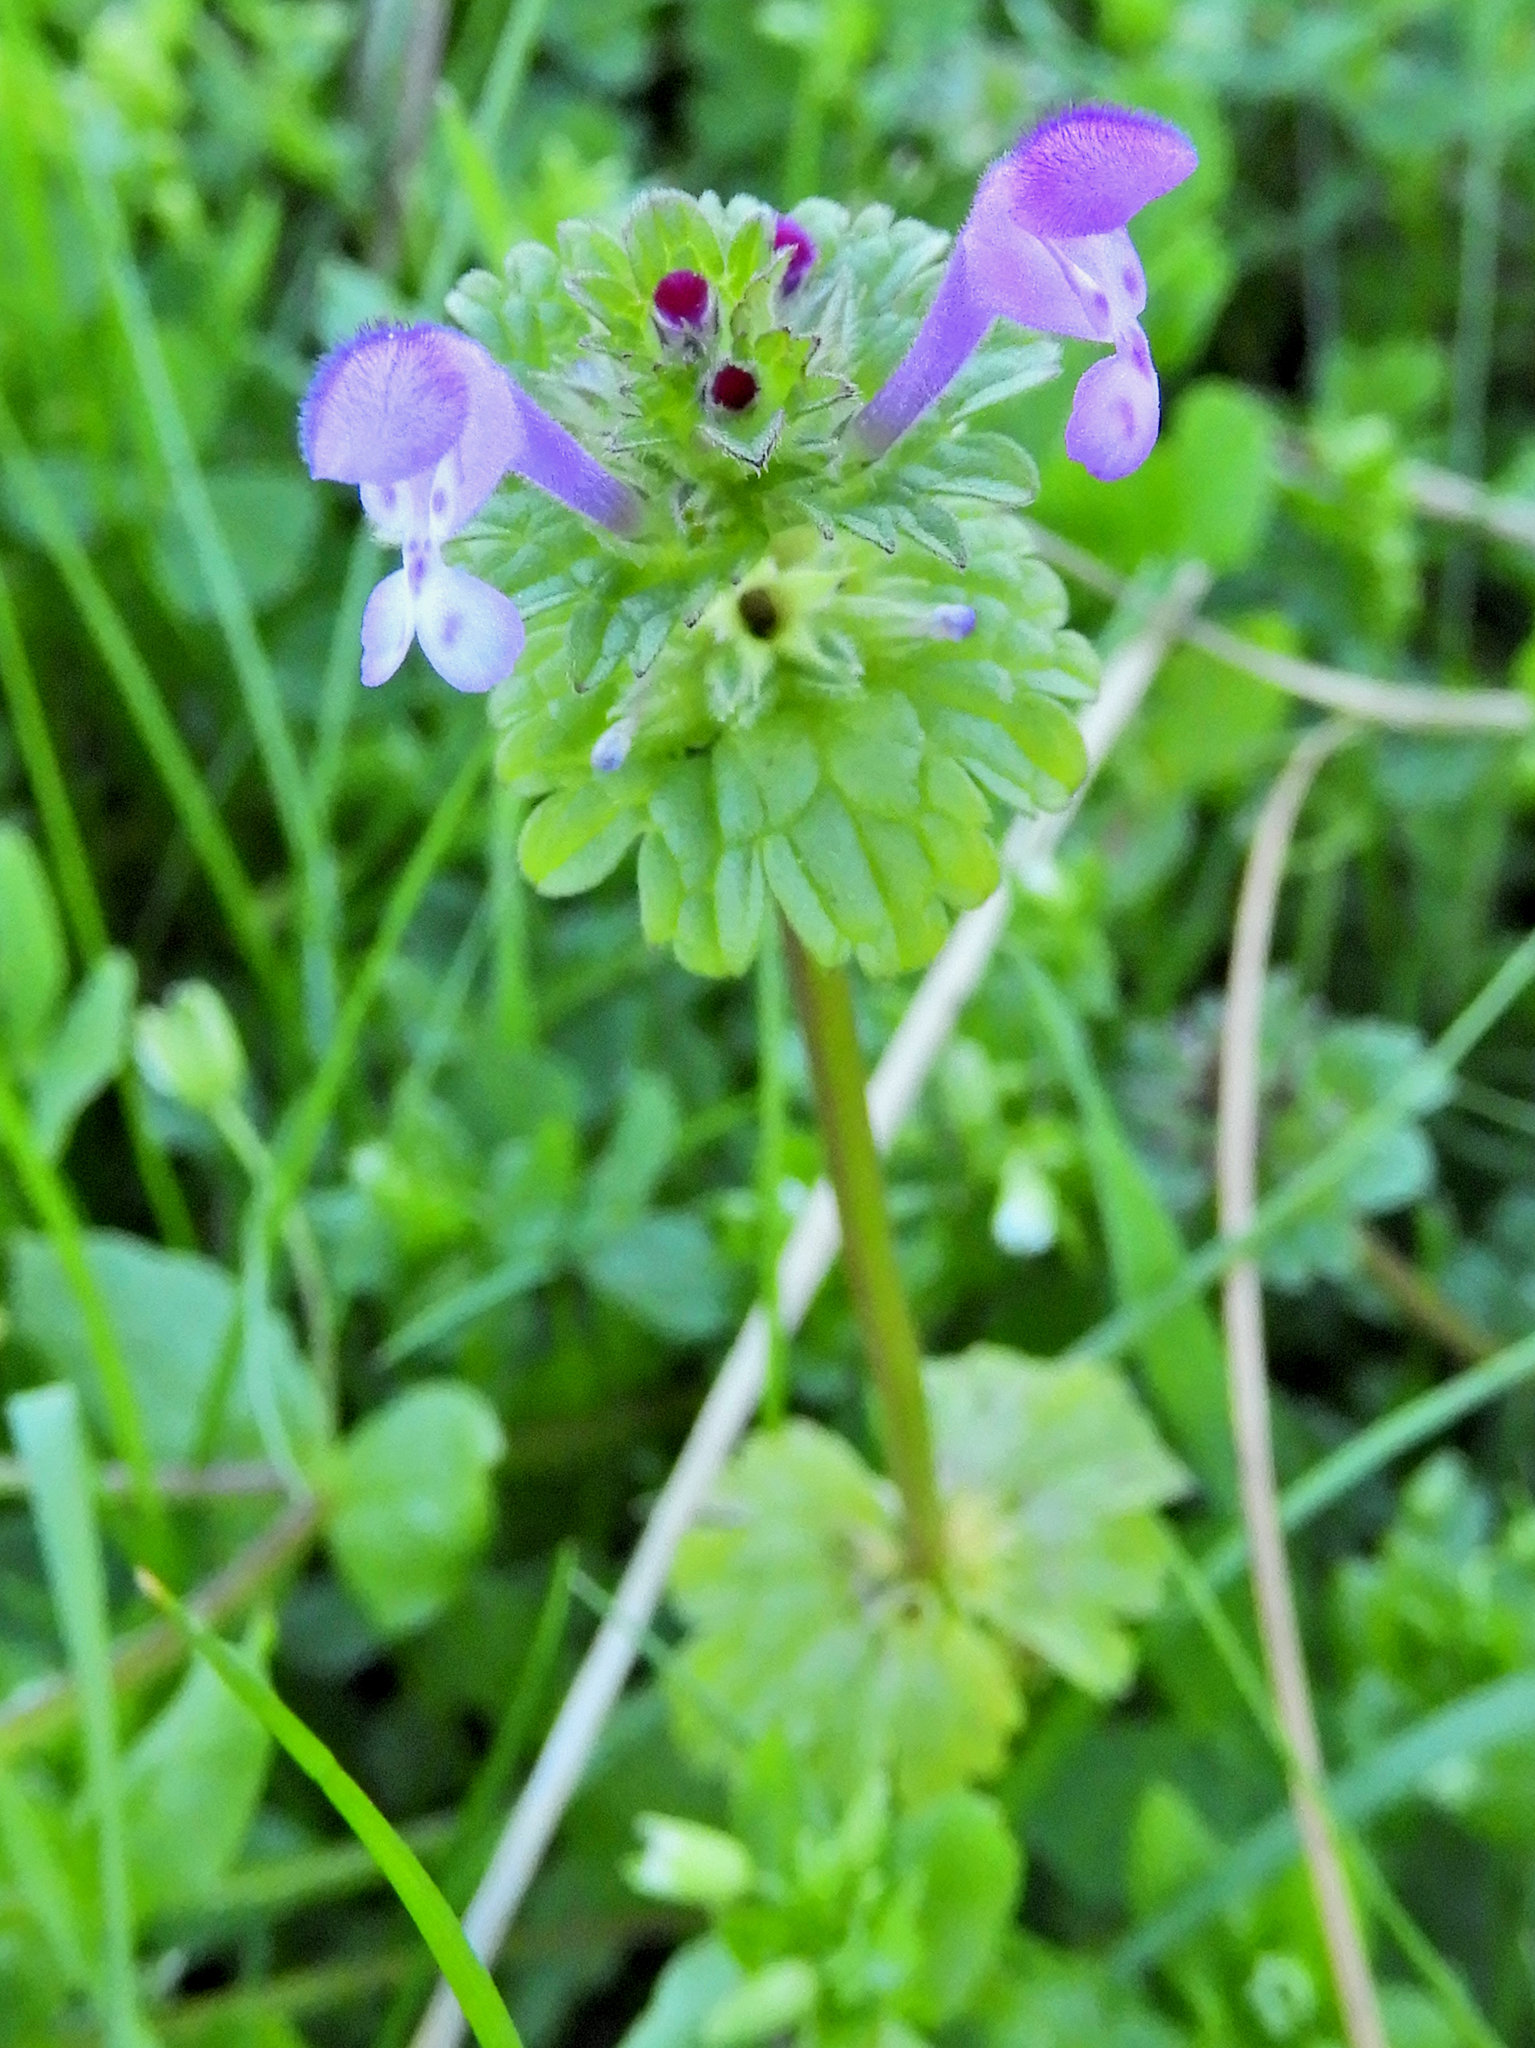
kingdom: Plantae
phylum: Tracheophyta
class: Magnoliopsida
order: Lamiales
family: Lamiaceae
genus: Lamium
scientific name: Lamium amplexicaule
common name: Henbit dead-nettle
